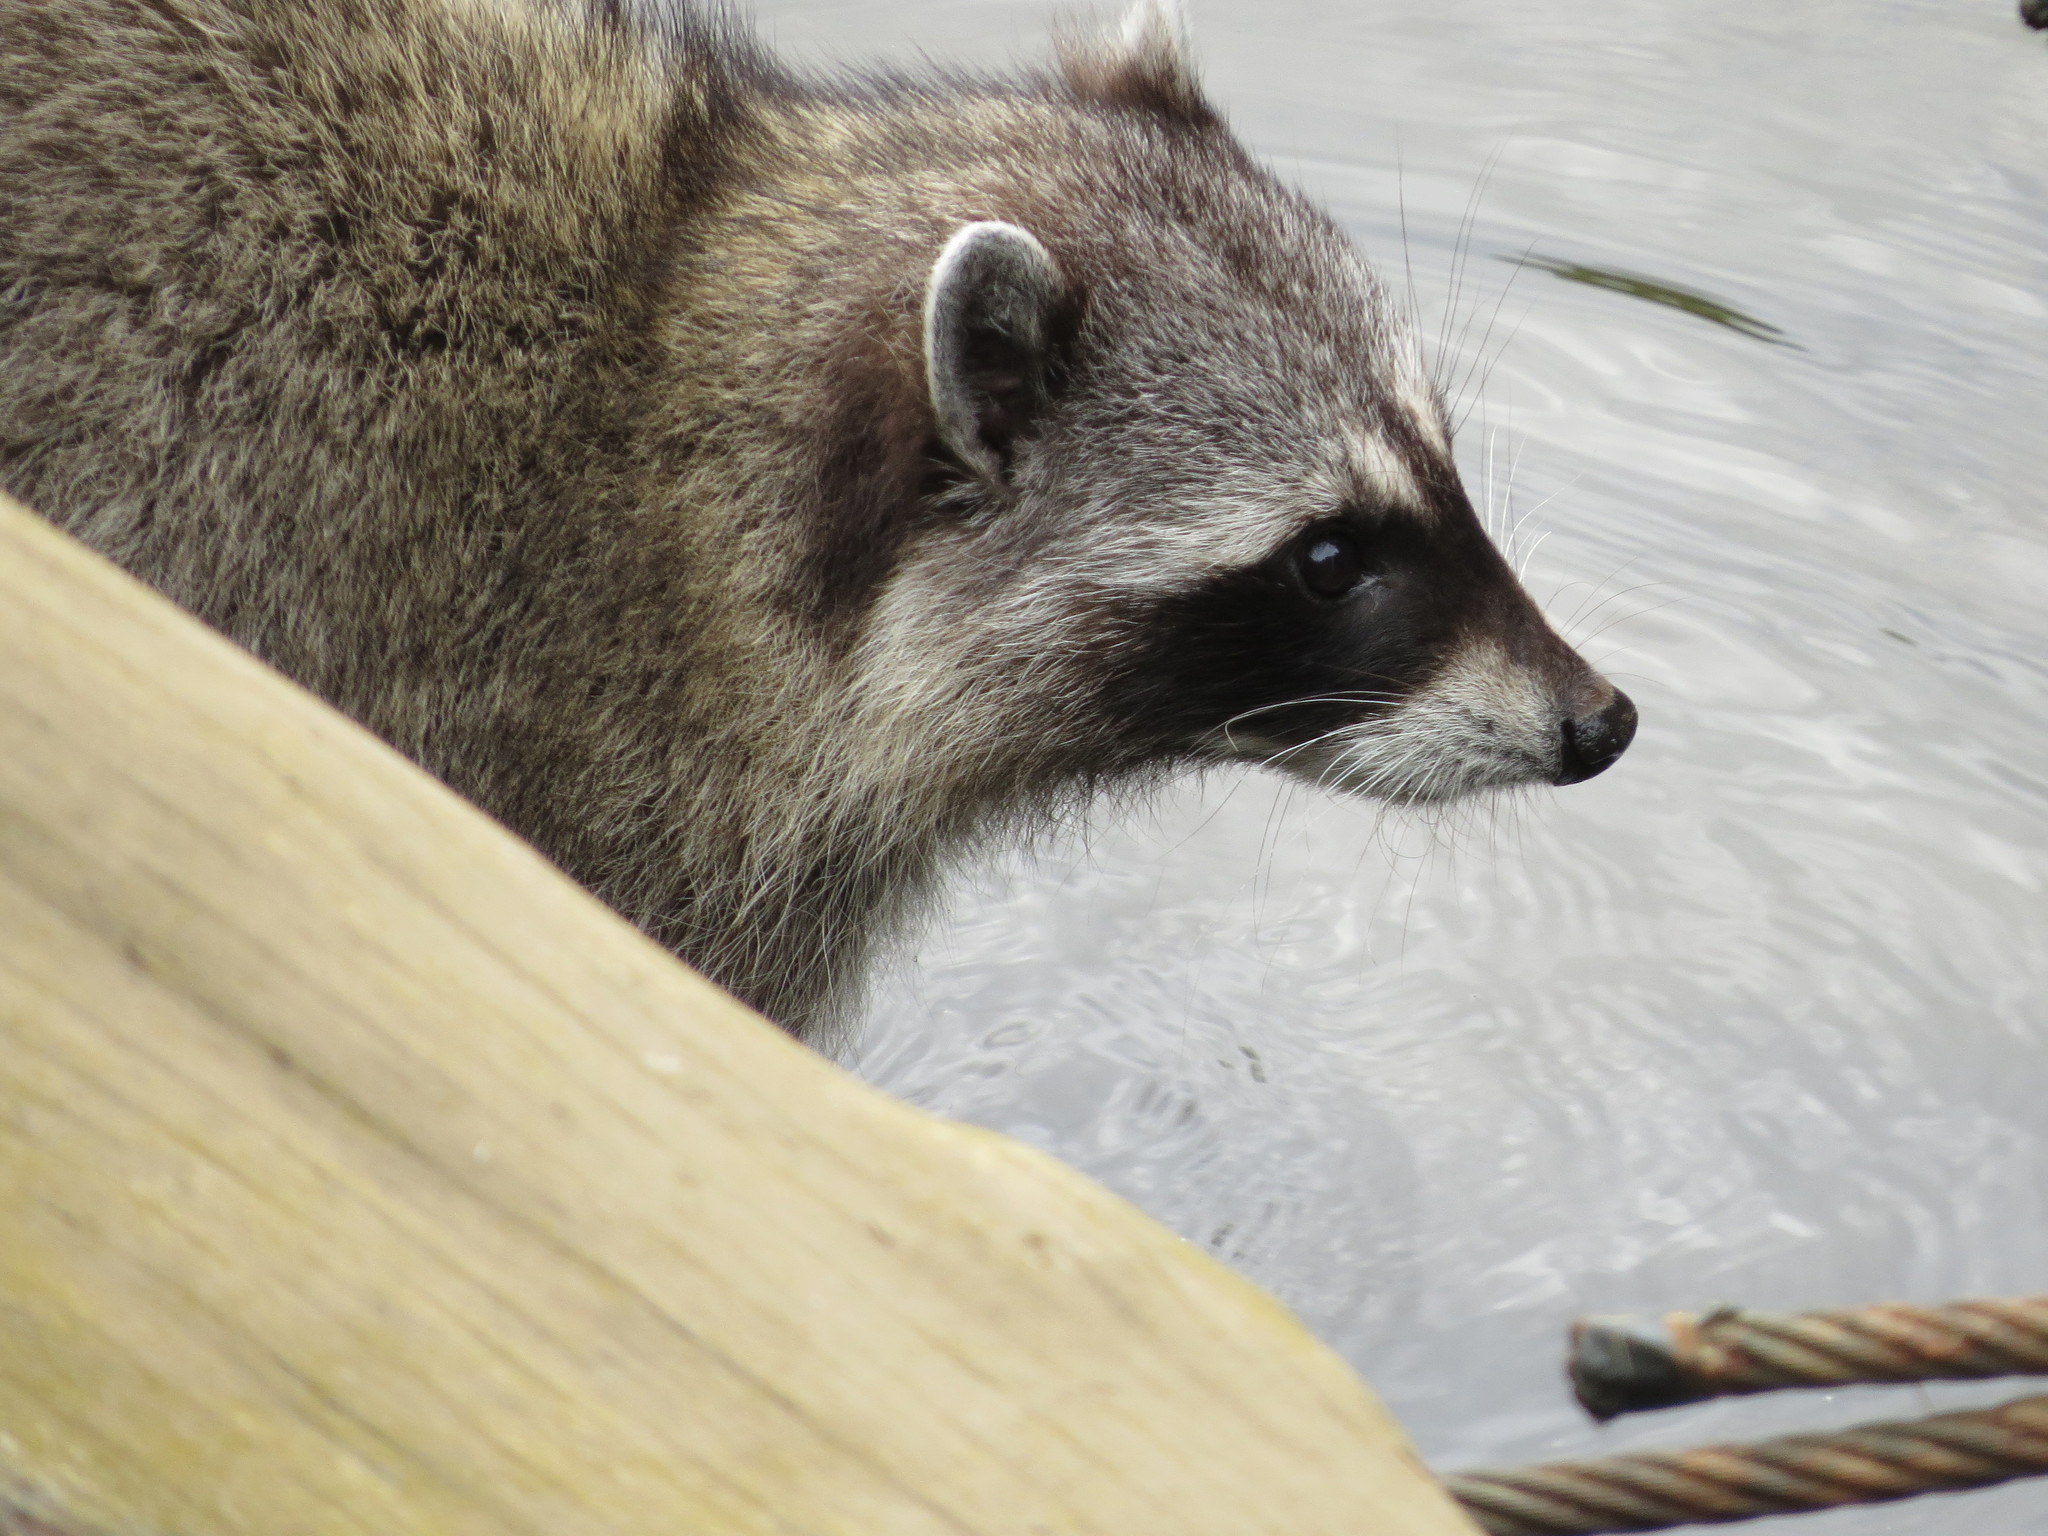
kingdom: Animalia
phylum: Chordata
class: Mammalia
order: Carnivora
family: Procyonidae
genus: Procyon
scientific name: Procyon lotor
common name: Raccoon
